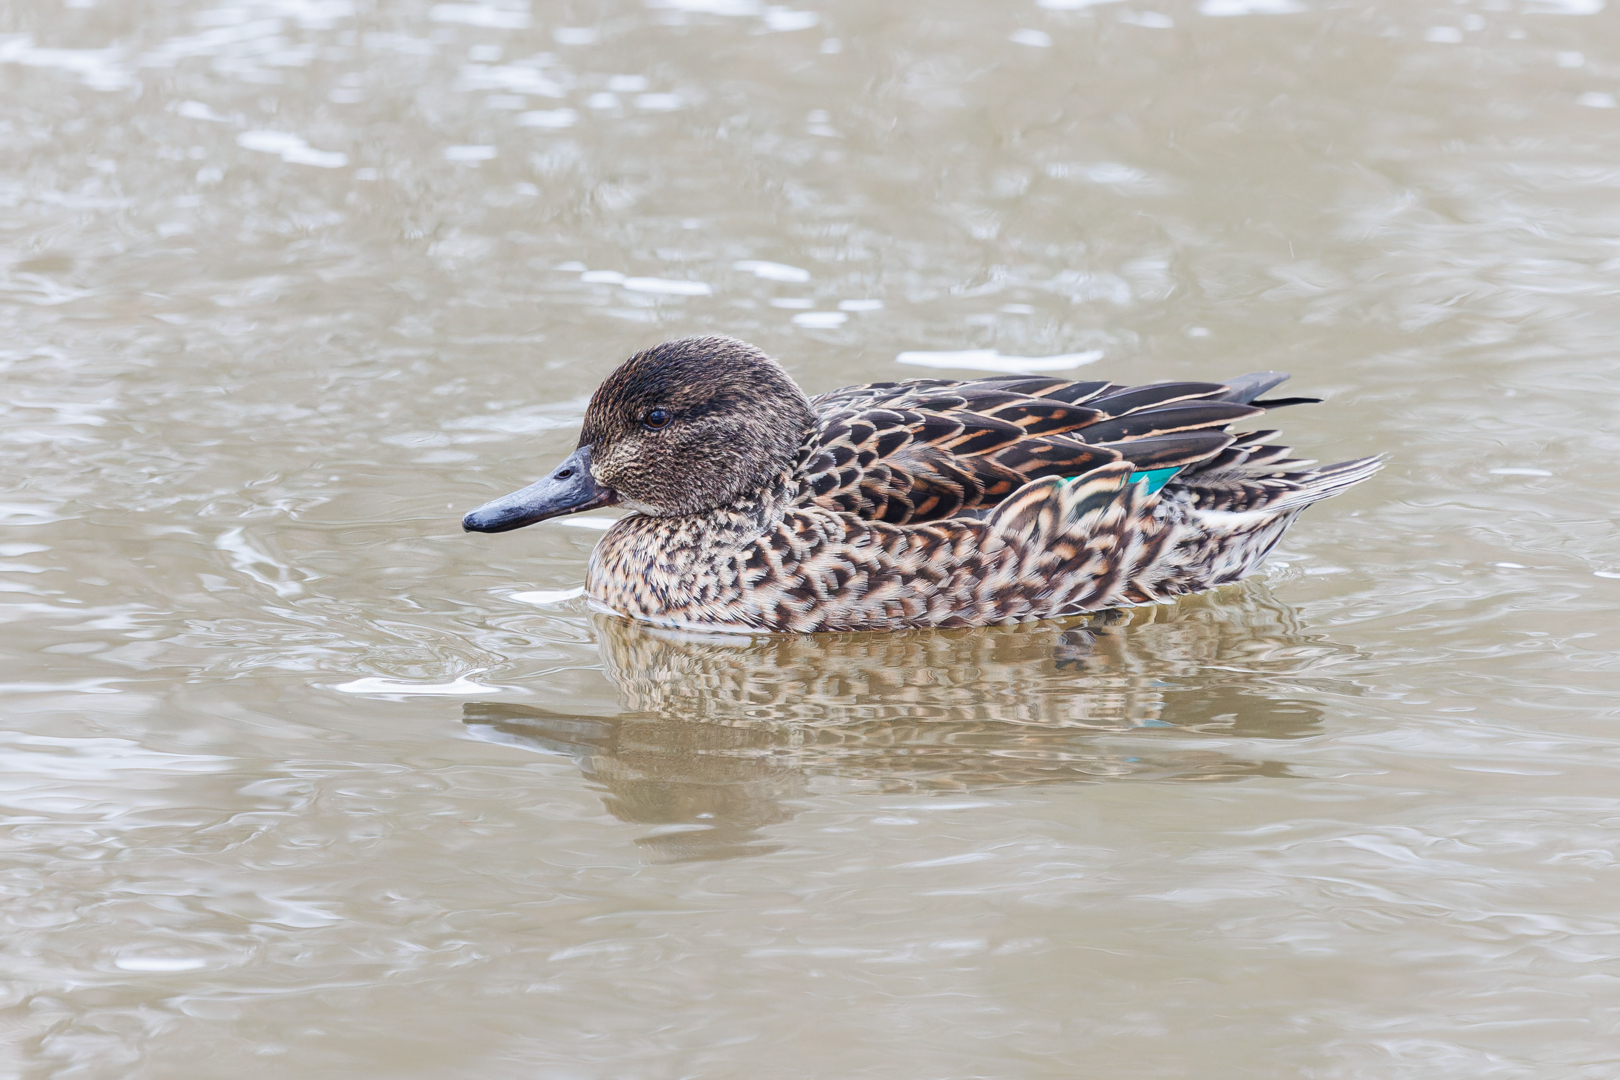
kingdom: Animalia
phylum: Chordata
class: Aves
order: Anseriformes
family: Anatidae
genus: Anas
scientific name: Anas crecca
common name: Eurasian teal
